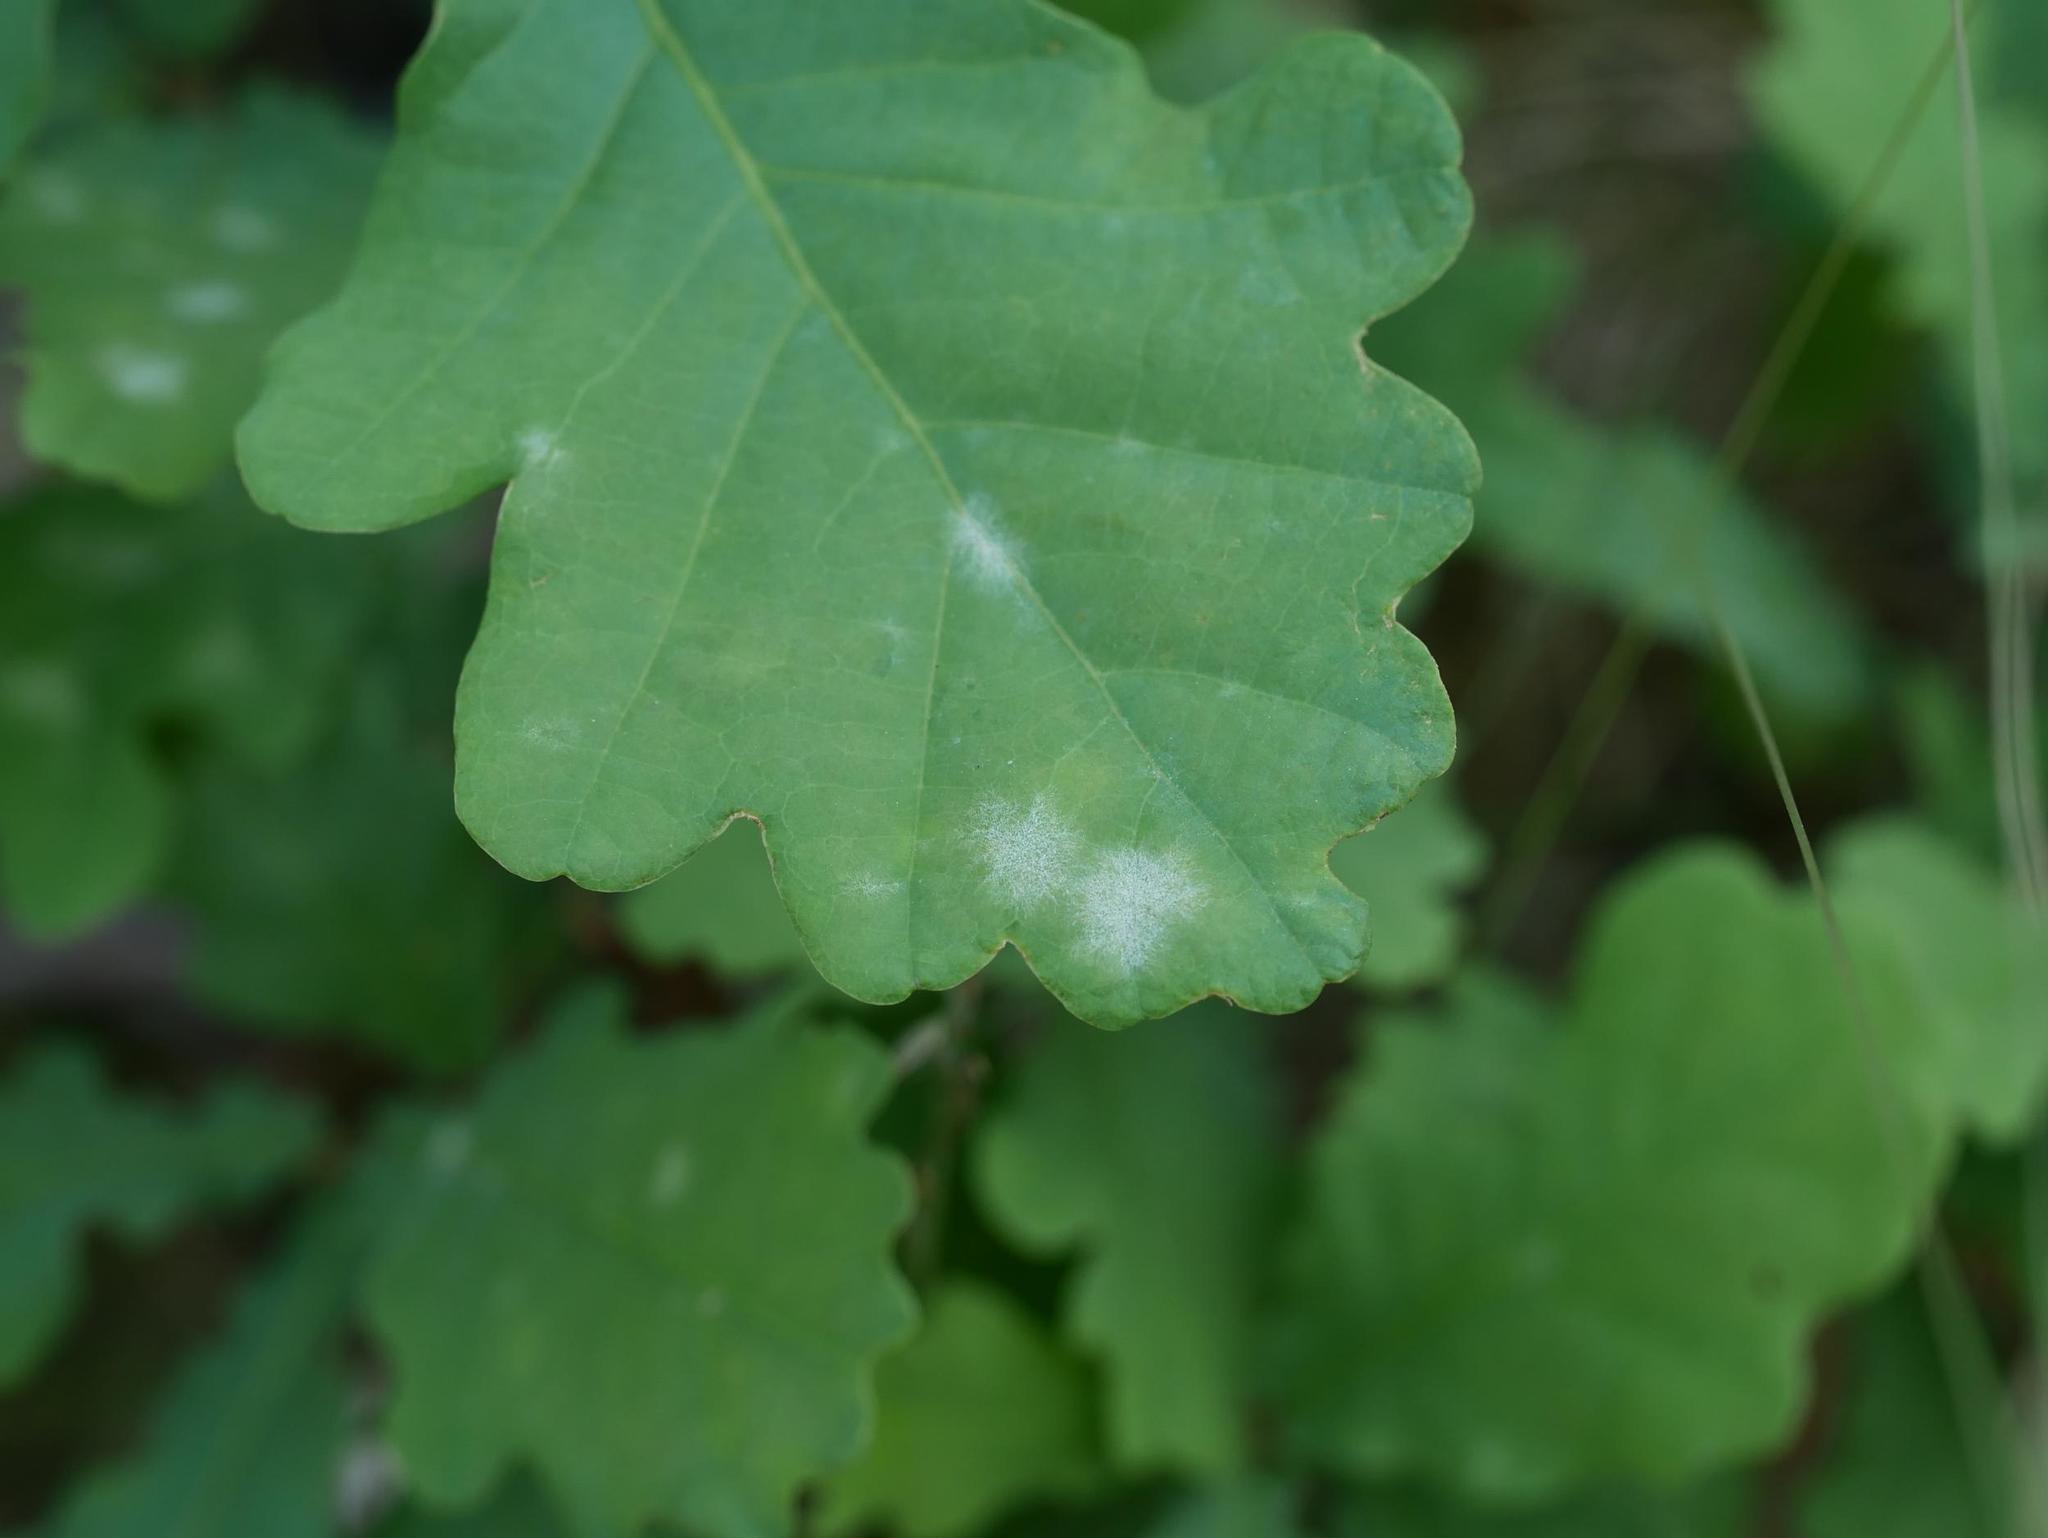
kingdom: Fungi
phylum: Ascomycota
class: Leotiomycetes
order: Helotiales
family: Erysiphaceae
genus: Erysiphe
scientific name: Erysiphe
